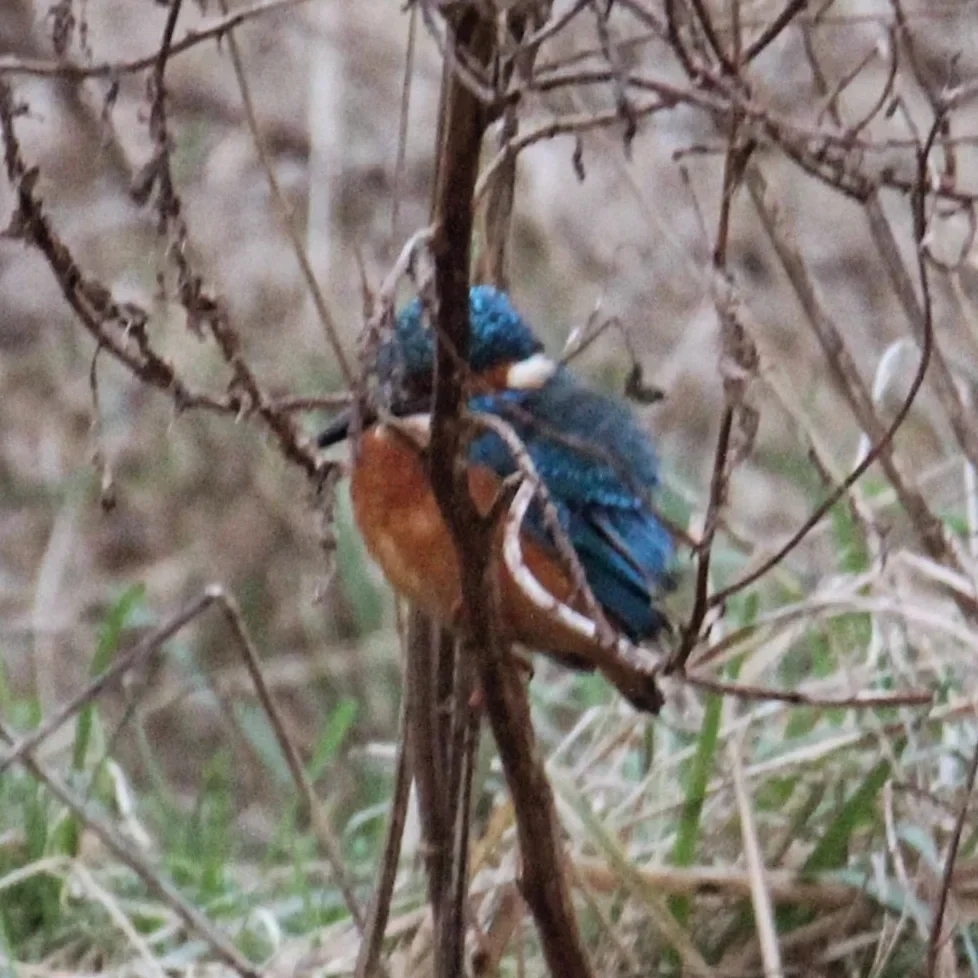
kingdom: Animalia
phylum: Chordata
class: Aves
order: Coraciiformes
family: Alcedinidae
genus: Alcedo
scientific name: Alcedo atthis
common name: Common kingfisher
